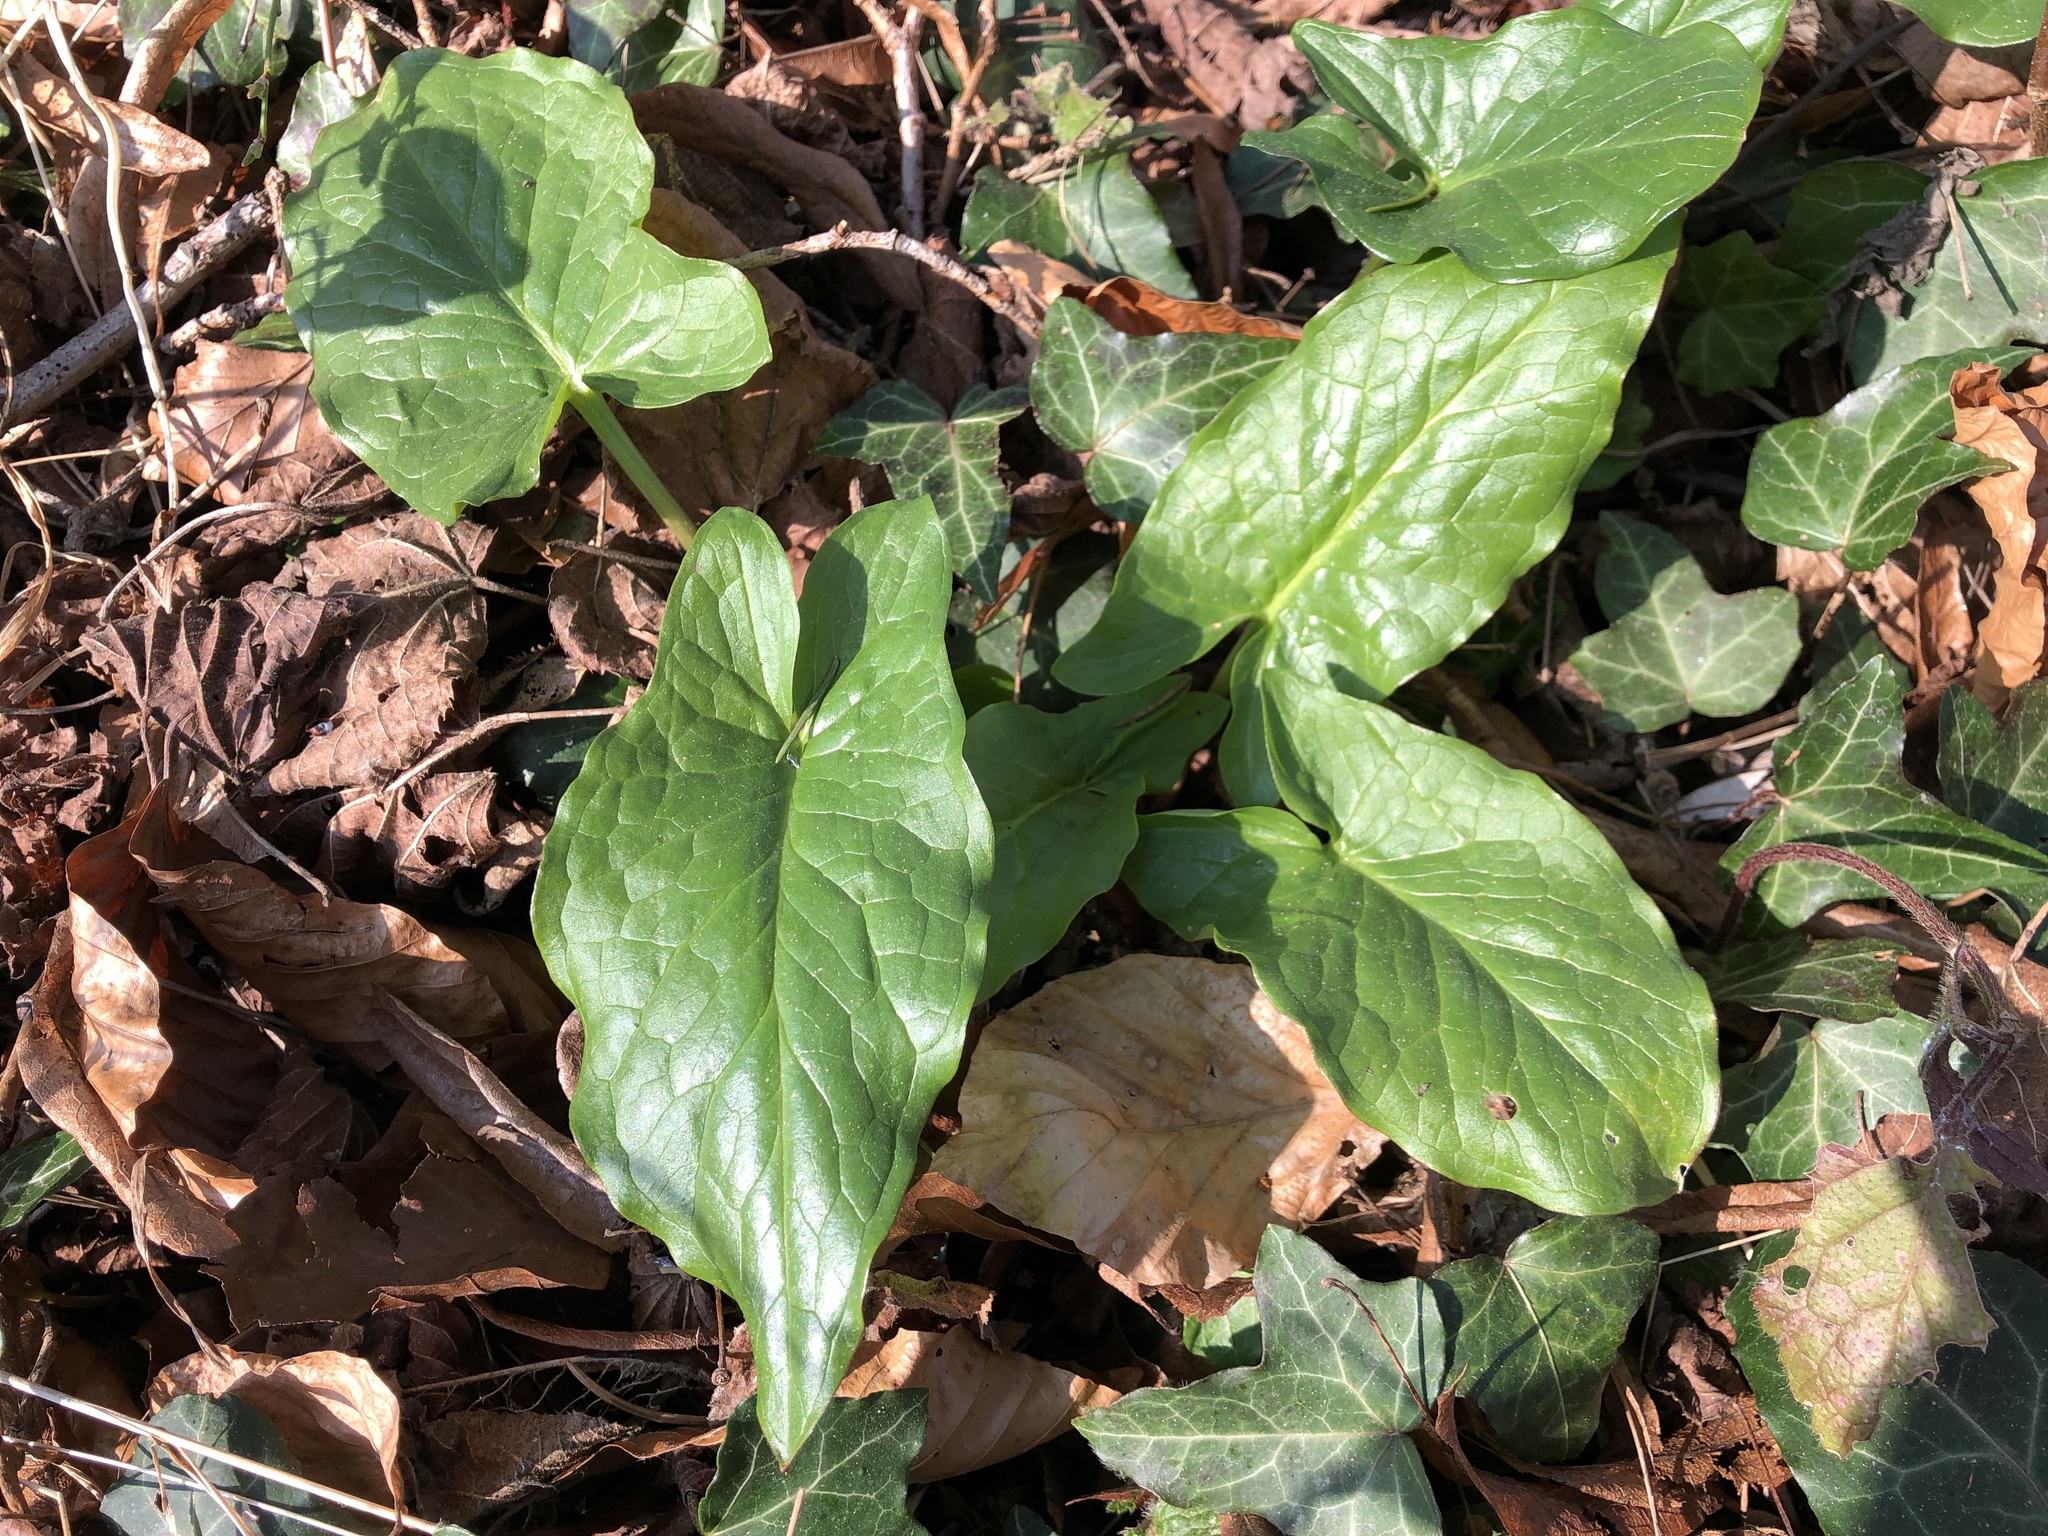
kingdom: Plantae
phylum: Tracheophyta
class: Liliopsida
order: Alismatales
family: Araceae
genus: Arum
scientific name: Arum maculatum
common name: Lords-and-ladies
